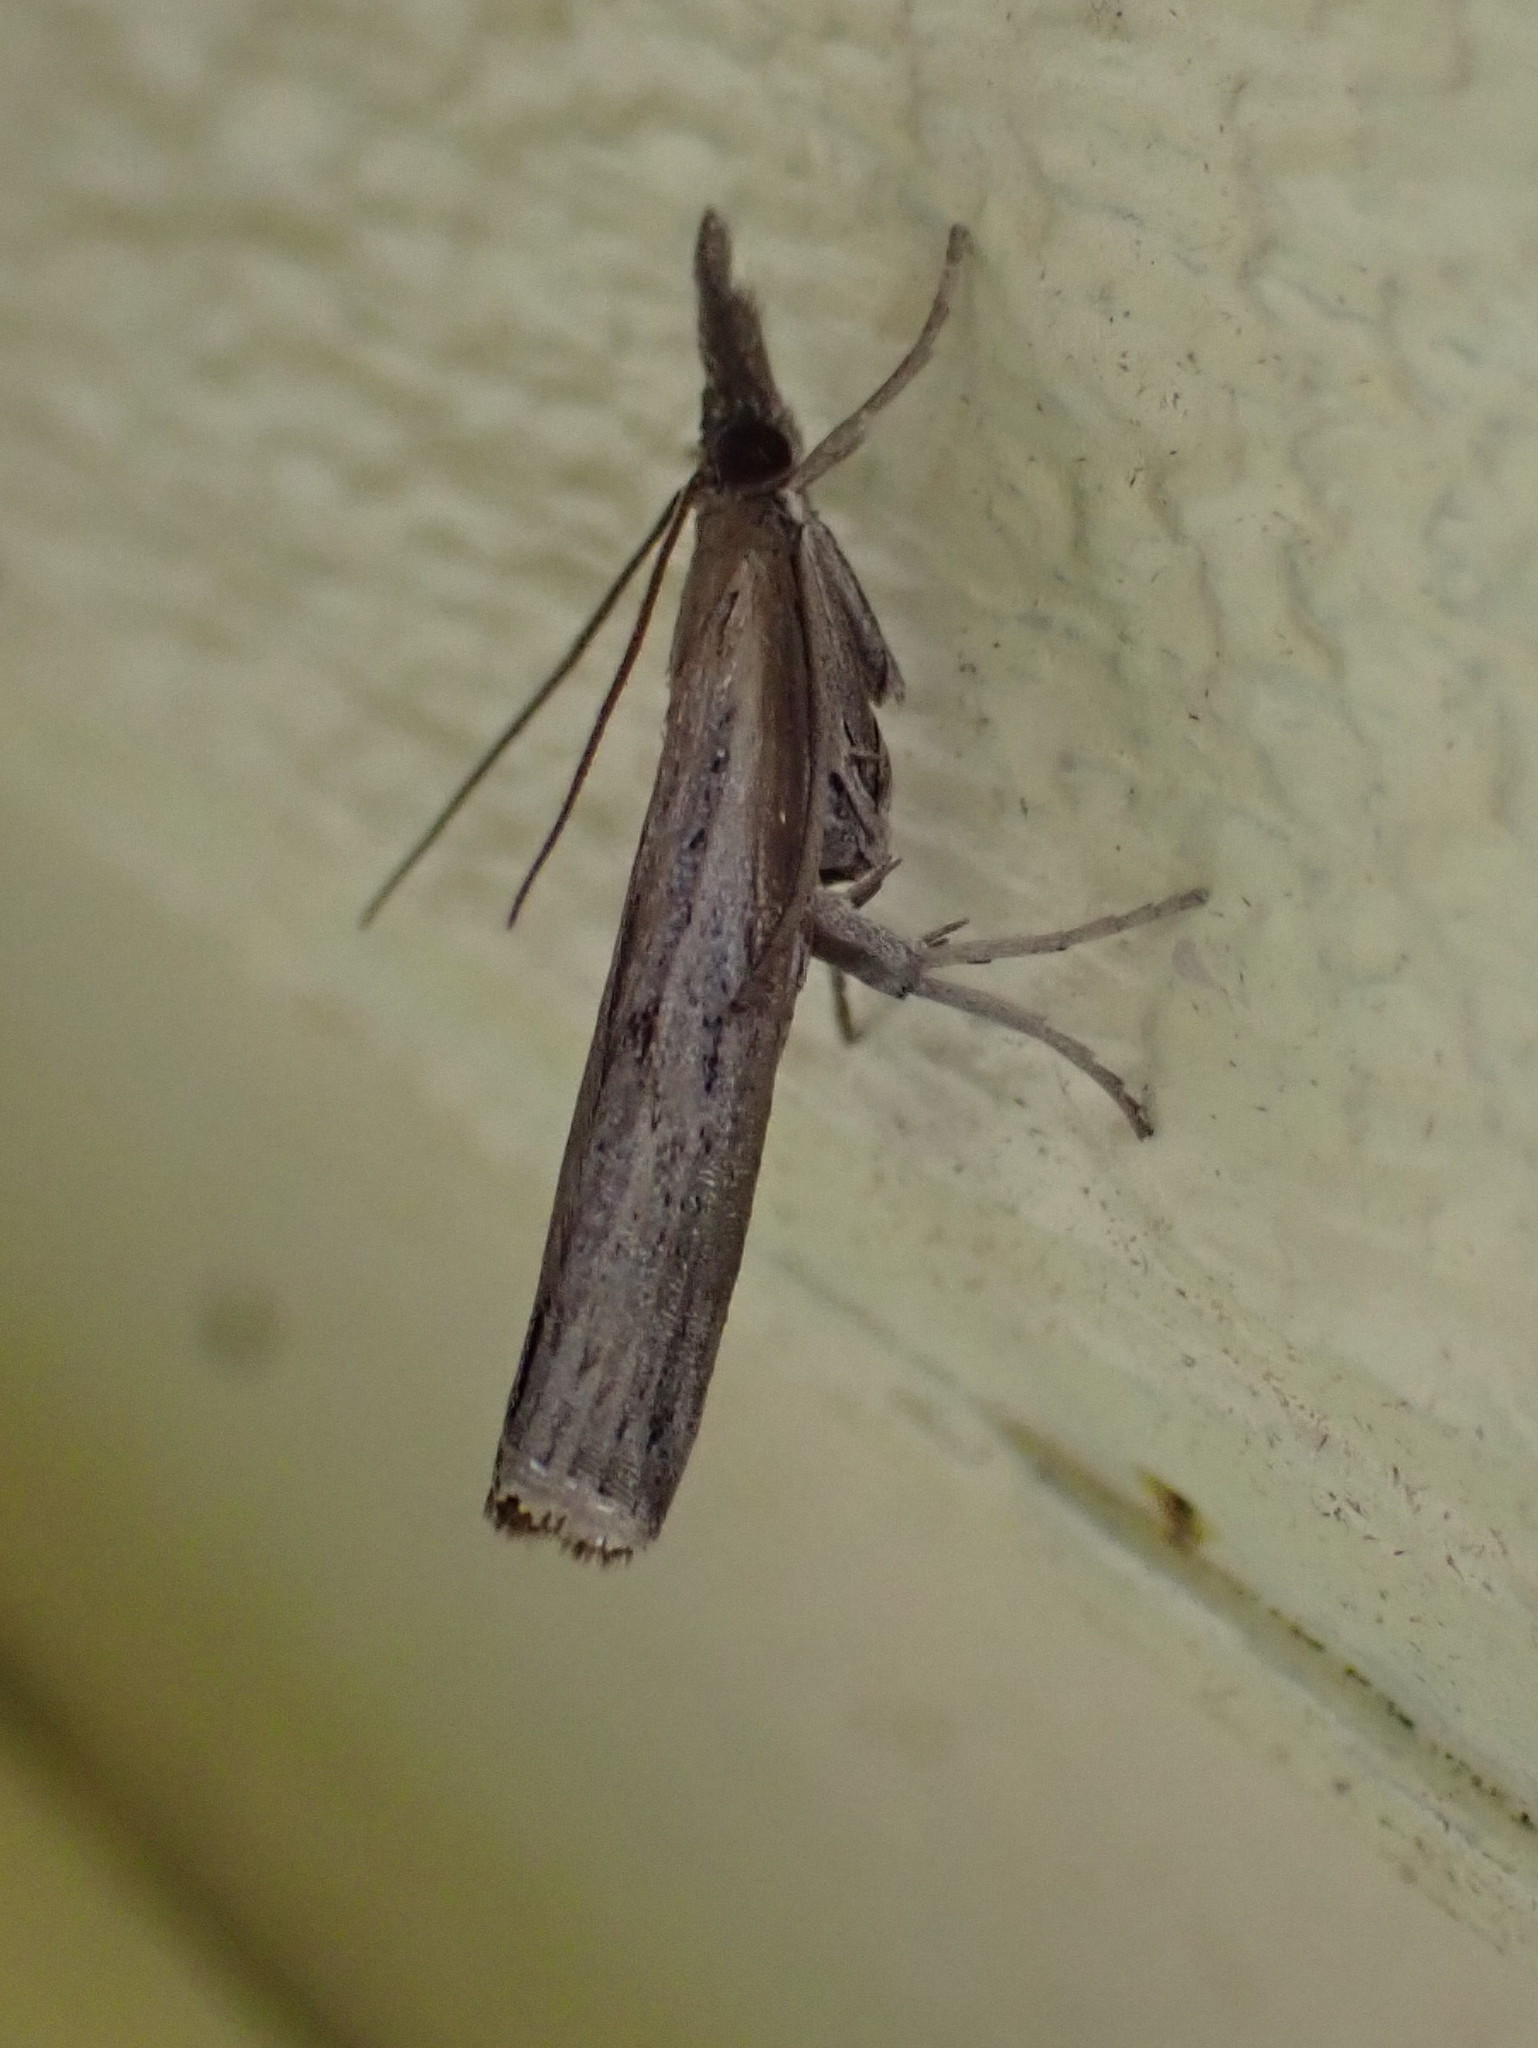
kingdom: Animalia
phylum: Arthropoda
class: Insecta
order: Lepidoptera
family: Crambidae
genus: Fissicrambus
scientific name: Fissicrambus mutabilis
